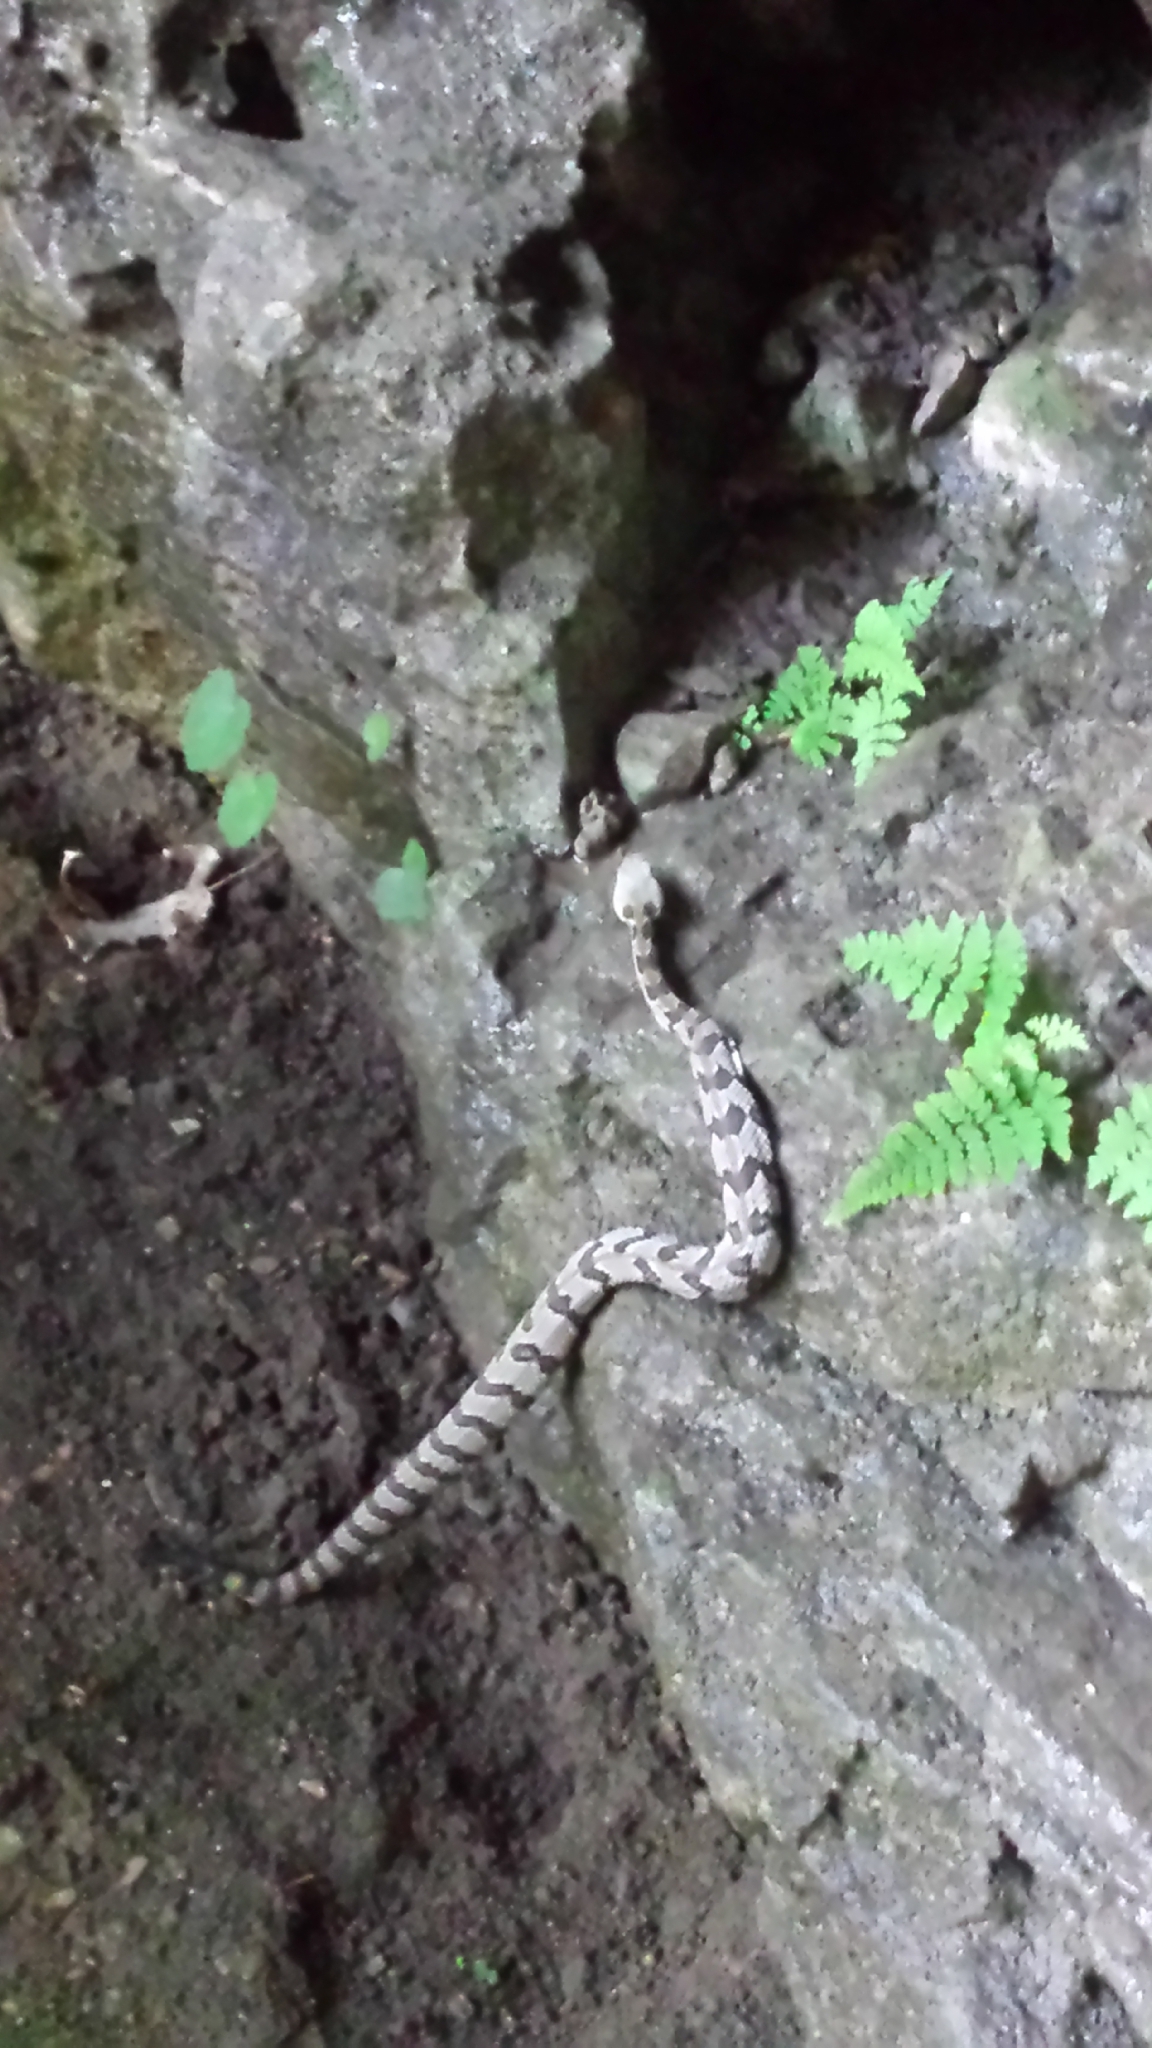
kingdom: Animalia
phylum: Chordata
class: Squamata
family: Viperidae
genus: Crotalus
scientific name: Crotalus horridus
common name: Timber rattlesnake
